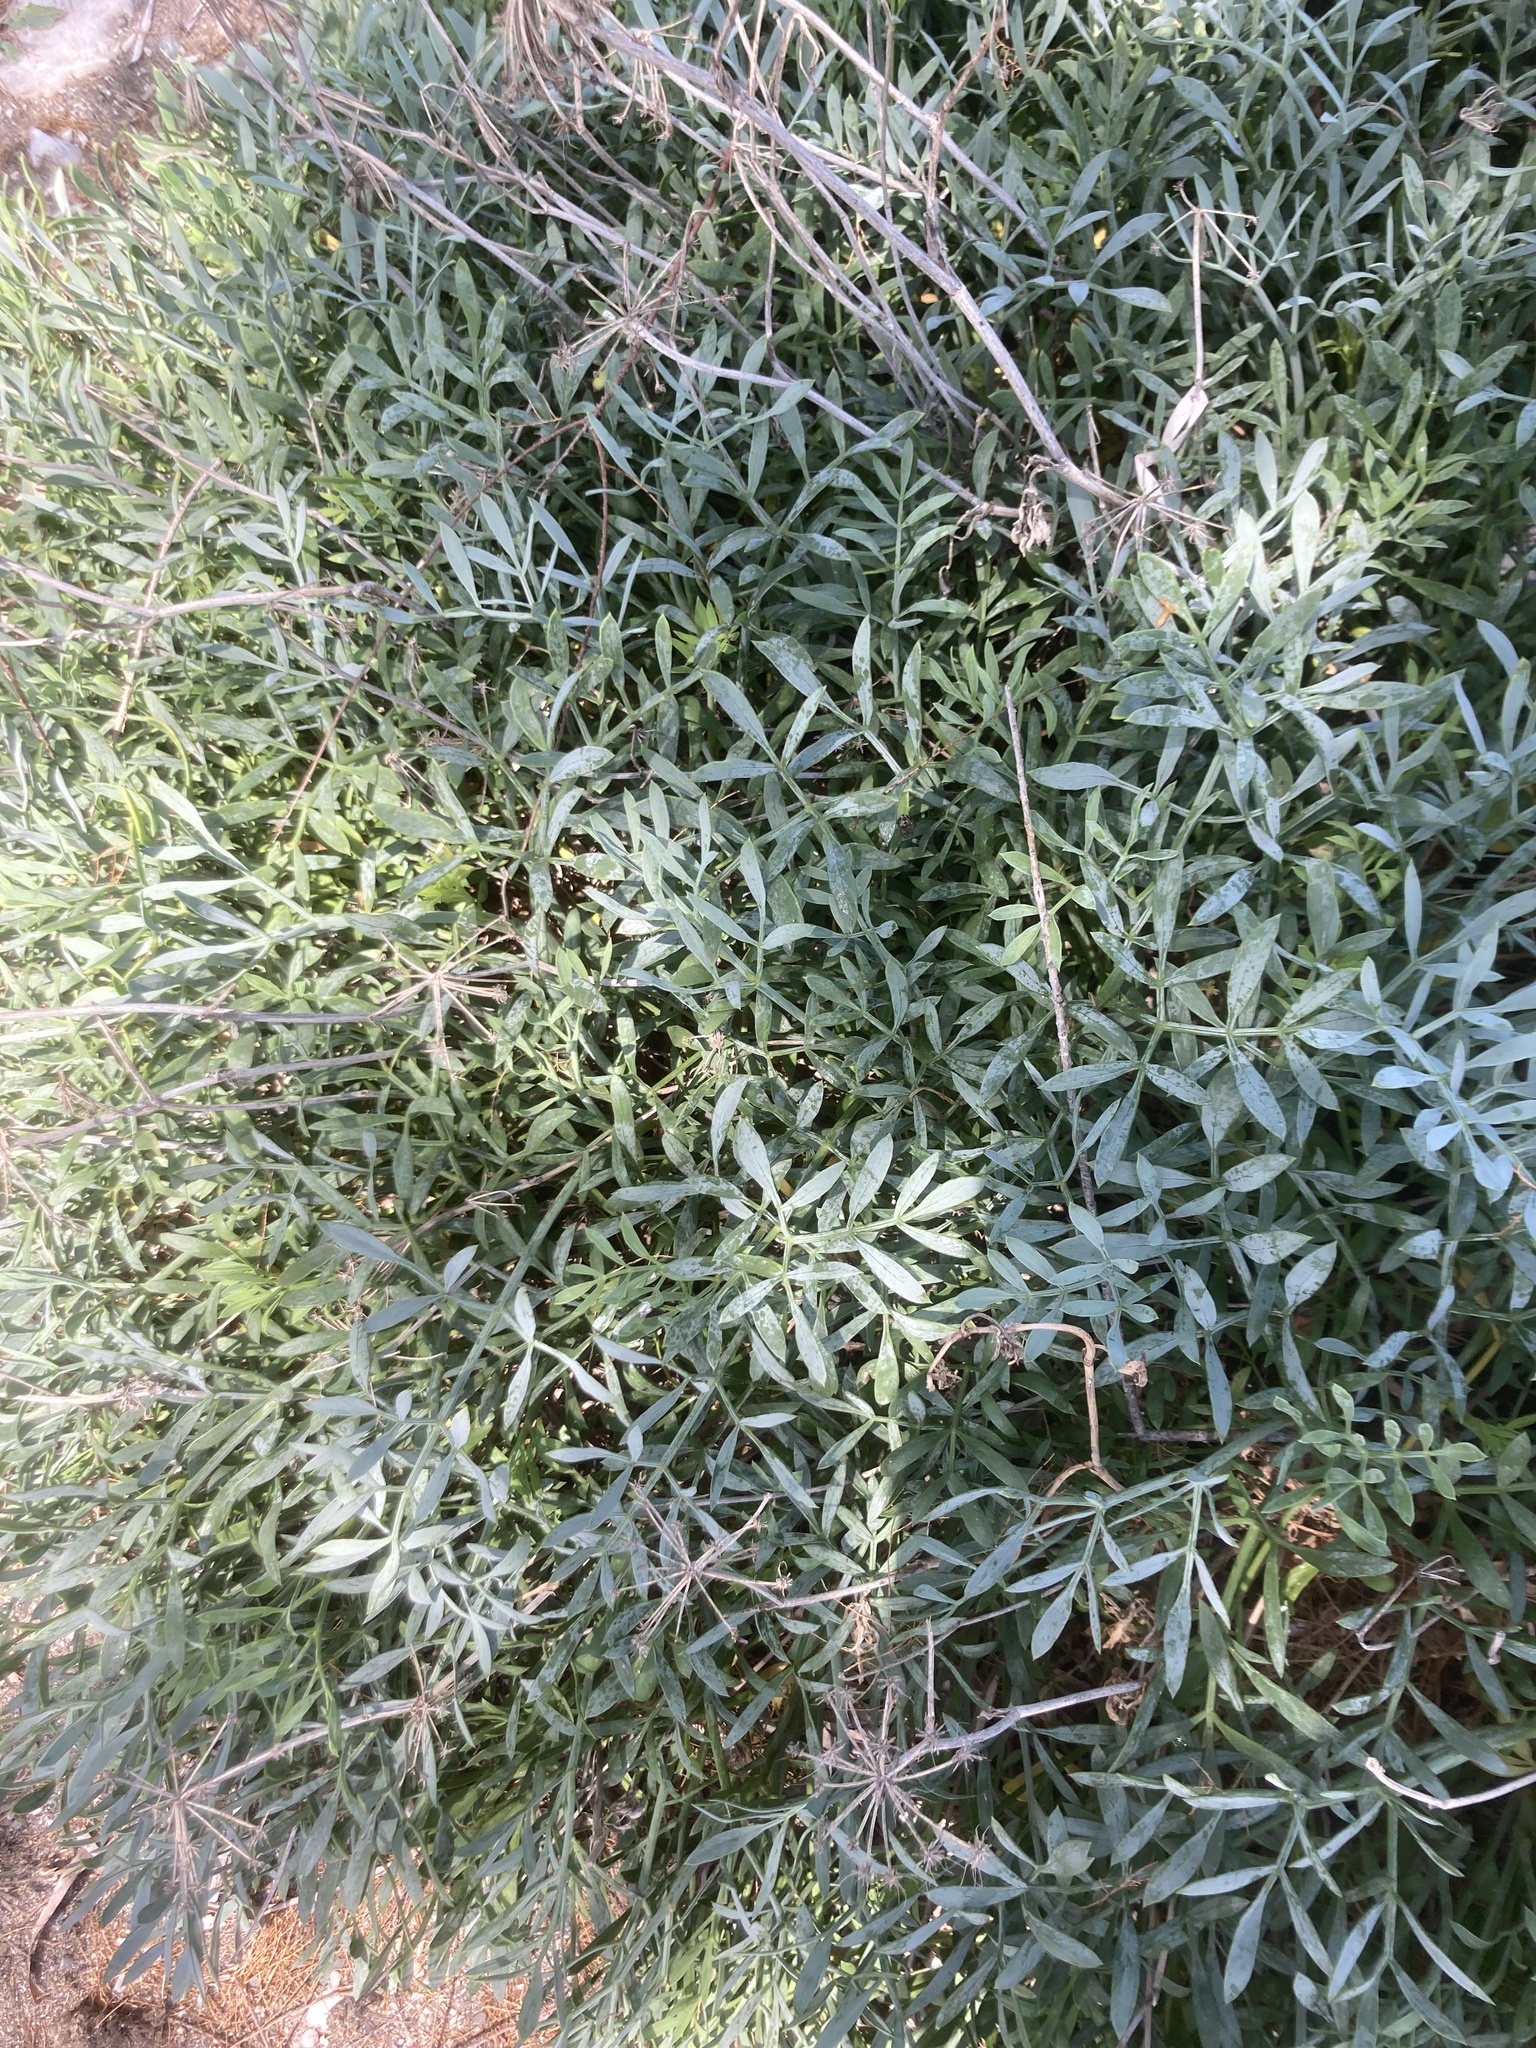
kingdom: Plantae
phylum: Tracheophyta
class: Magnoliopsida
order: Apiales
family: Apiaceae
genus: Crithmum
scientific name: Crithmum maritimum
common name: Rock samphire
